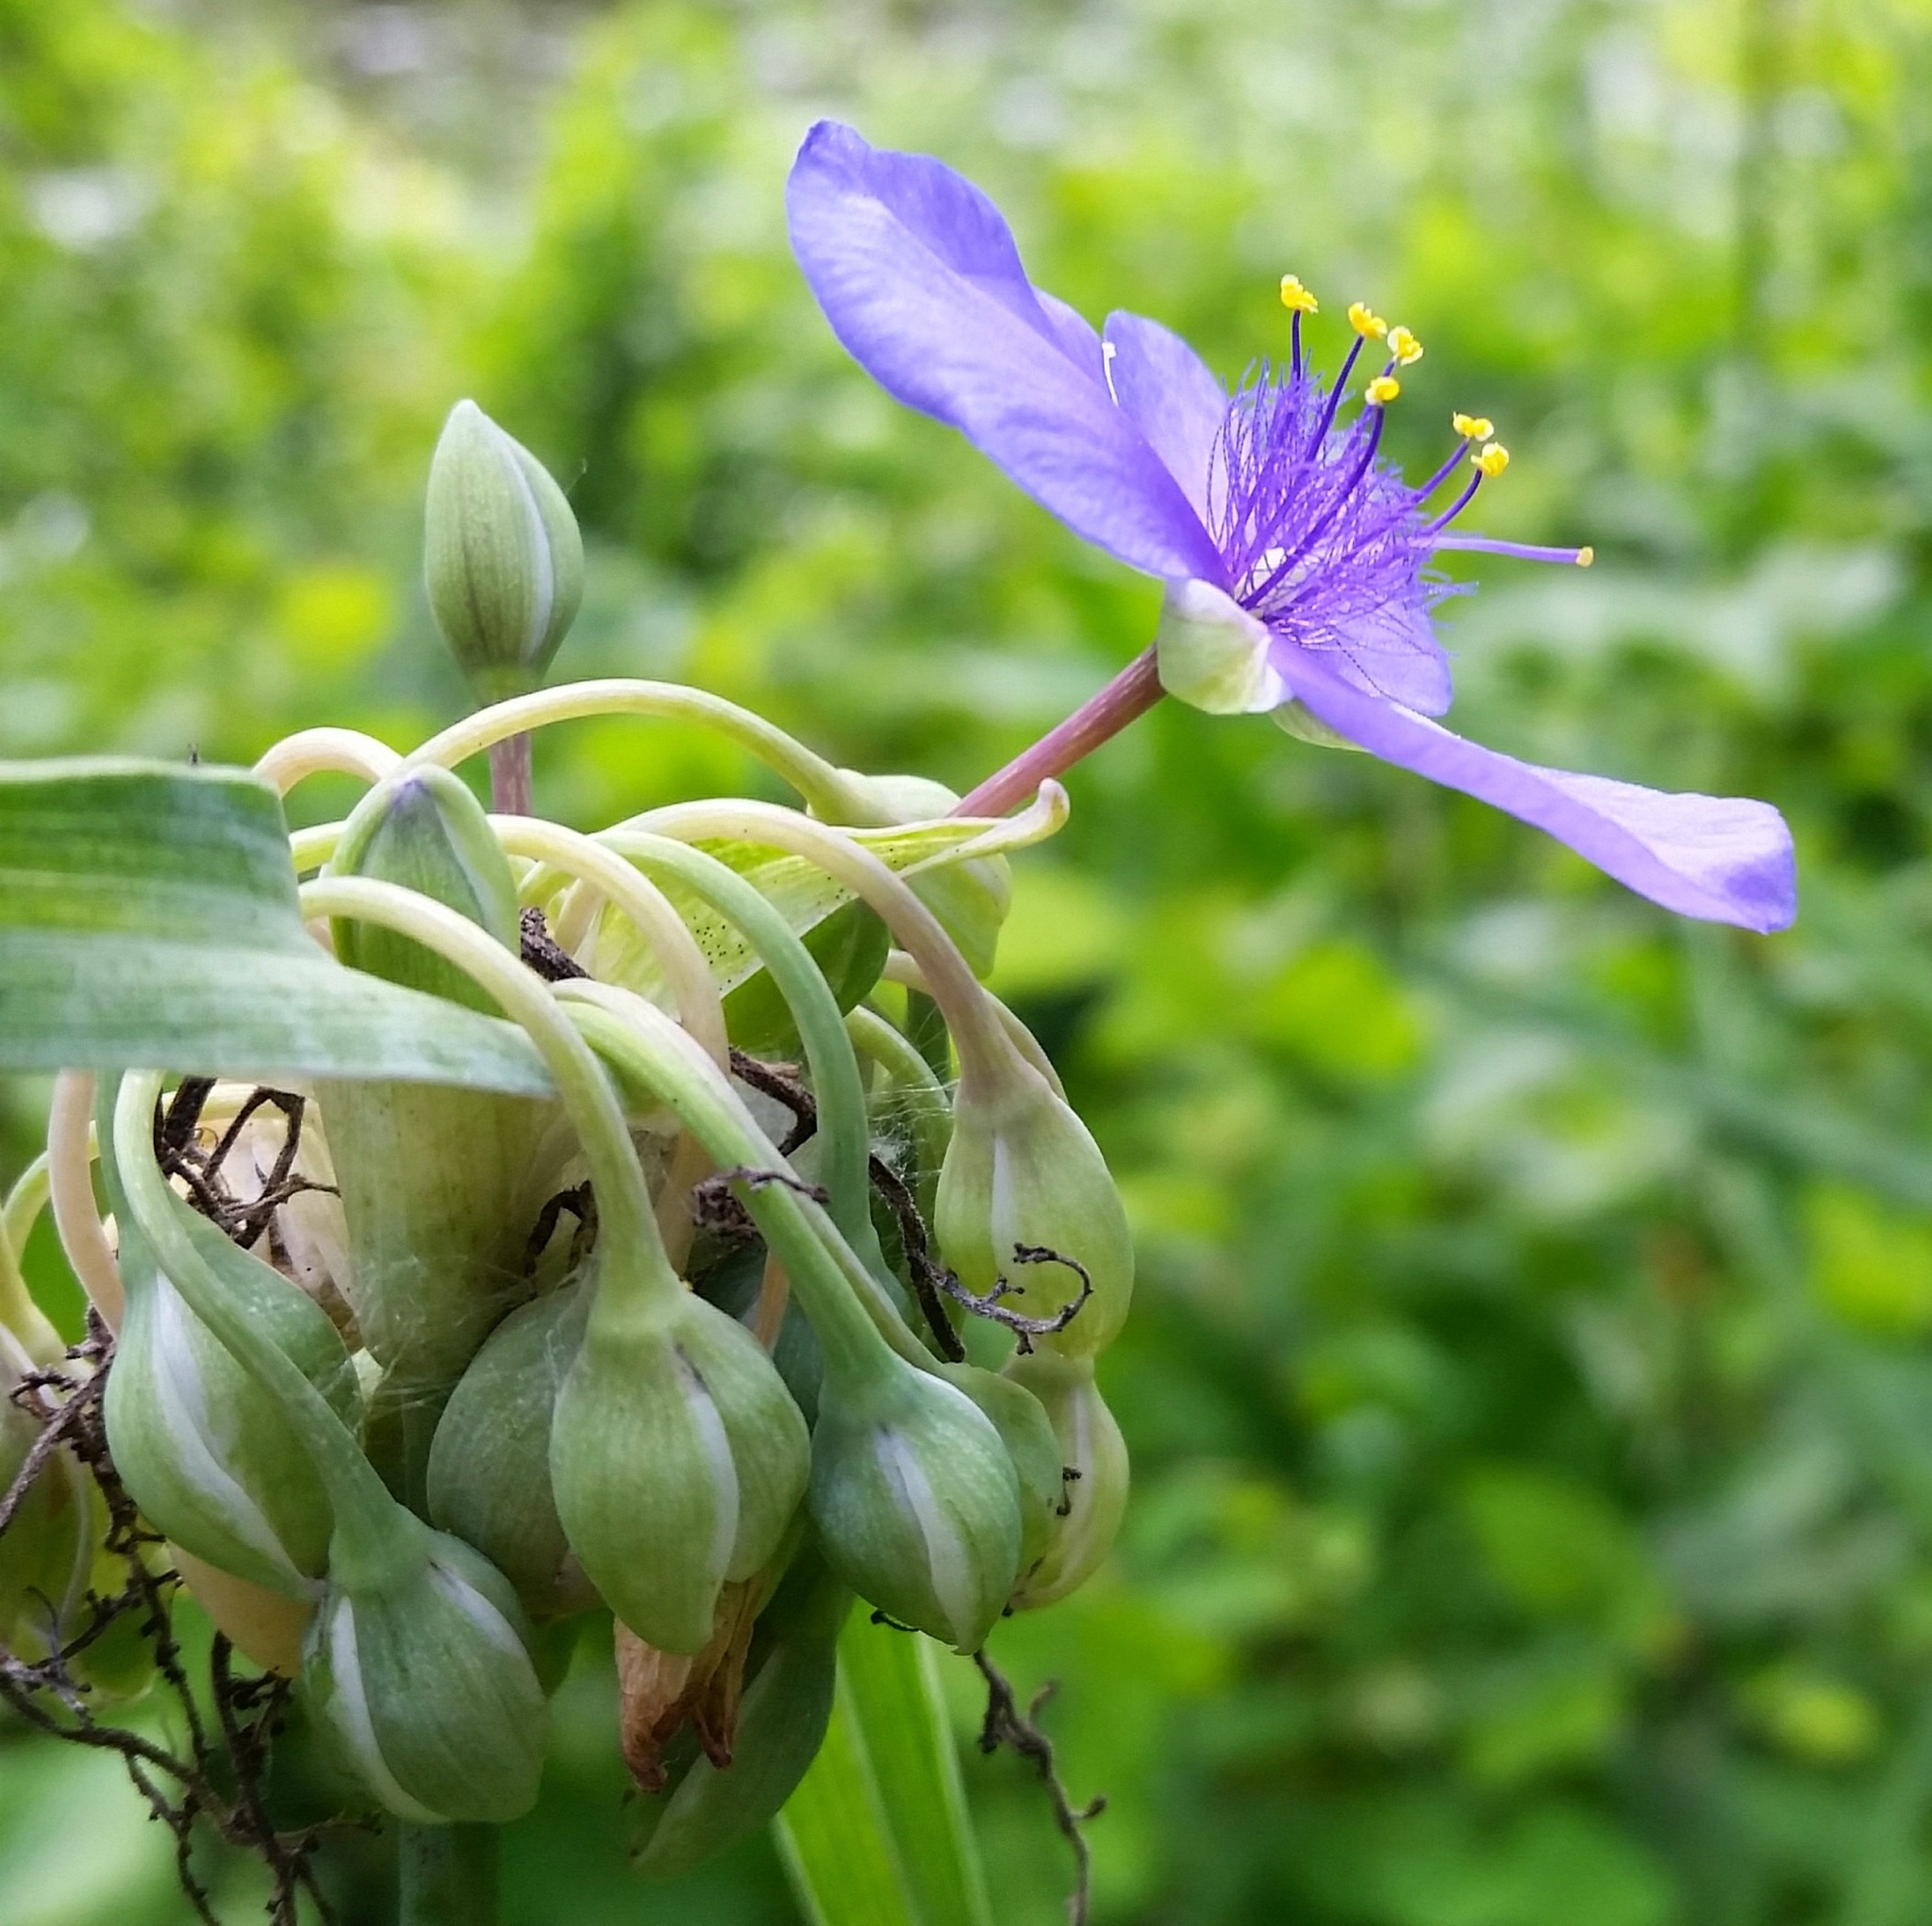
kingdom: Plantae
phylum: Tracheophyta
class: Liliopsida
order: Commelinales
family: Commelinaceae
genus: Tradescantia
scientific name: Tradescantia ohiensis
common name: Ohio spiderwort
